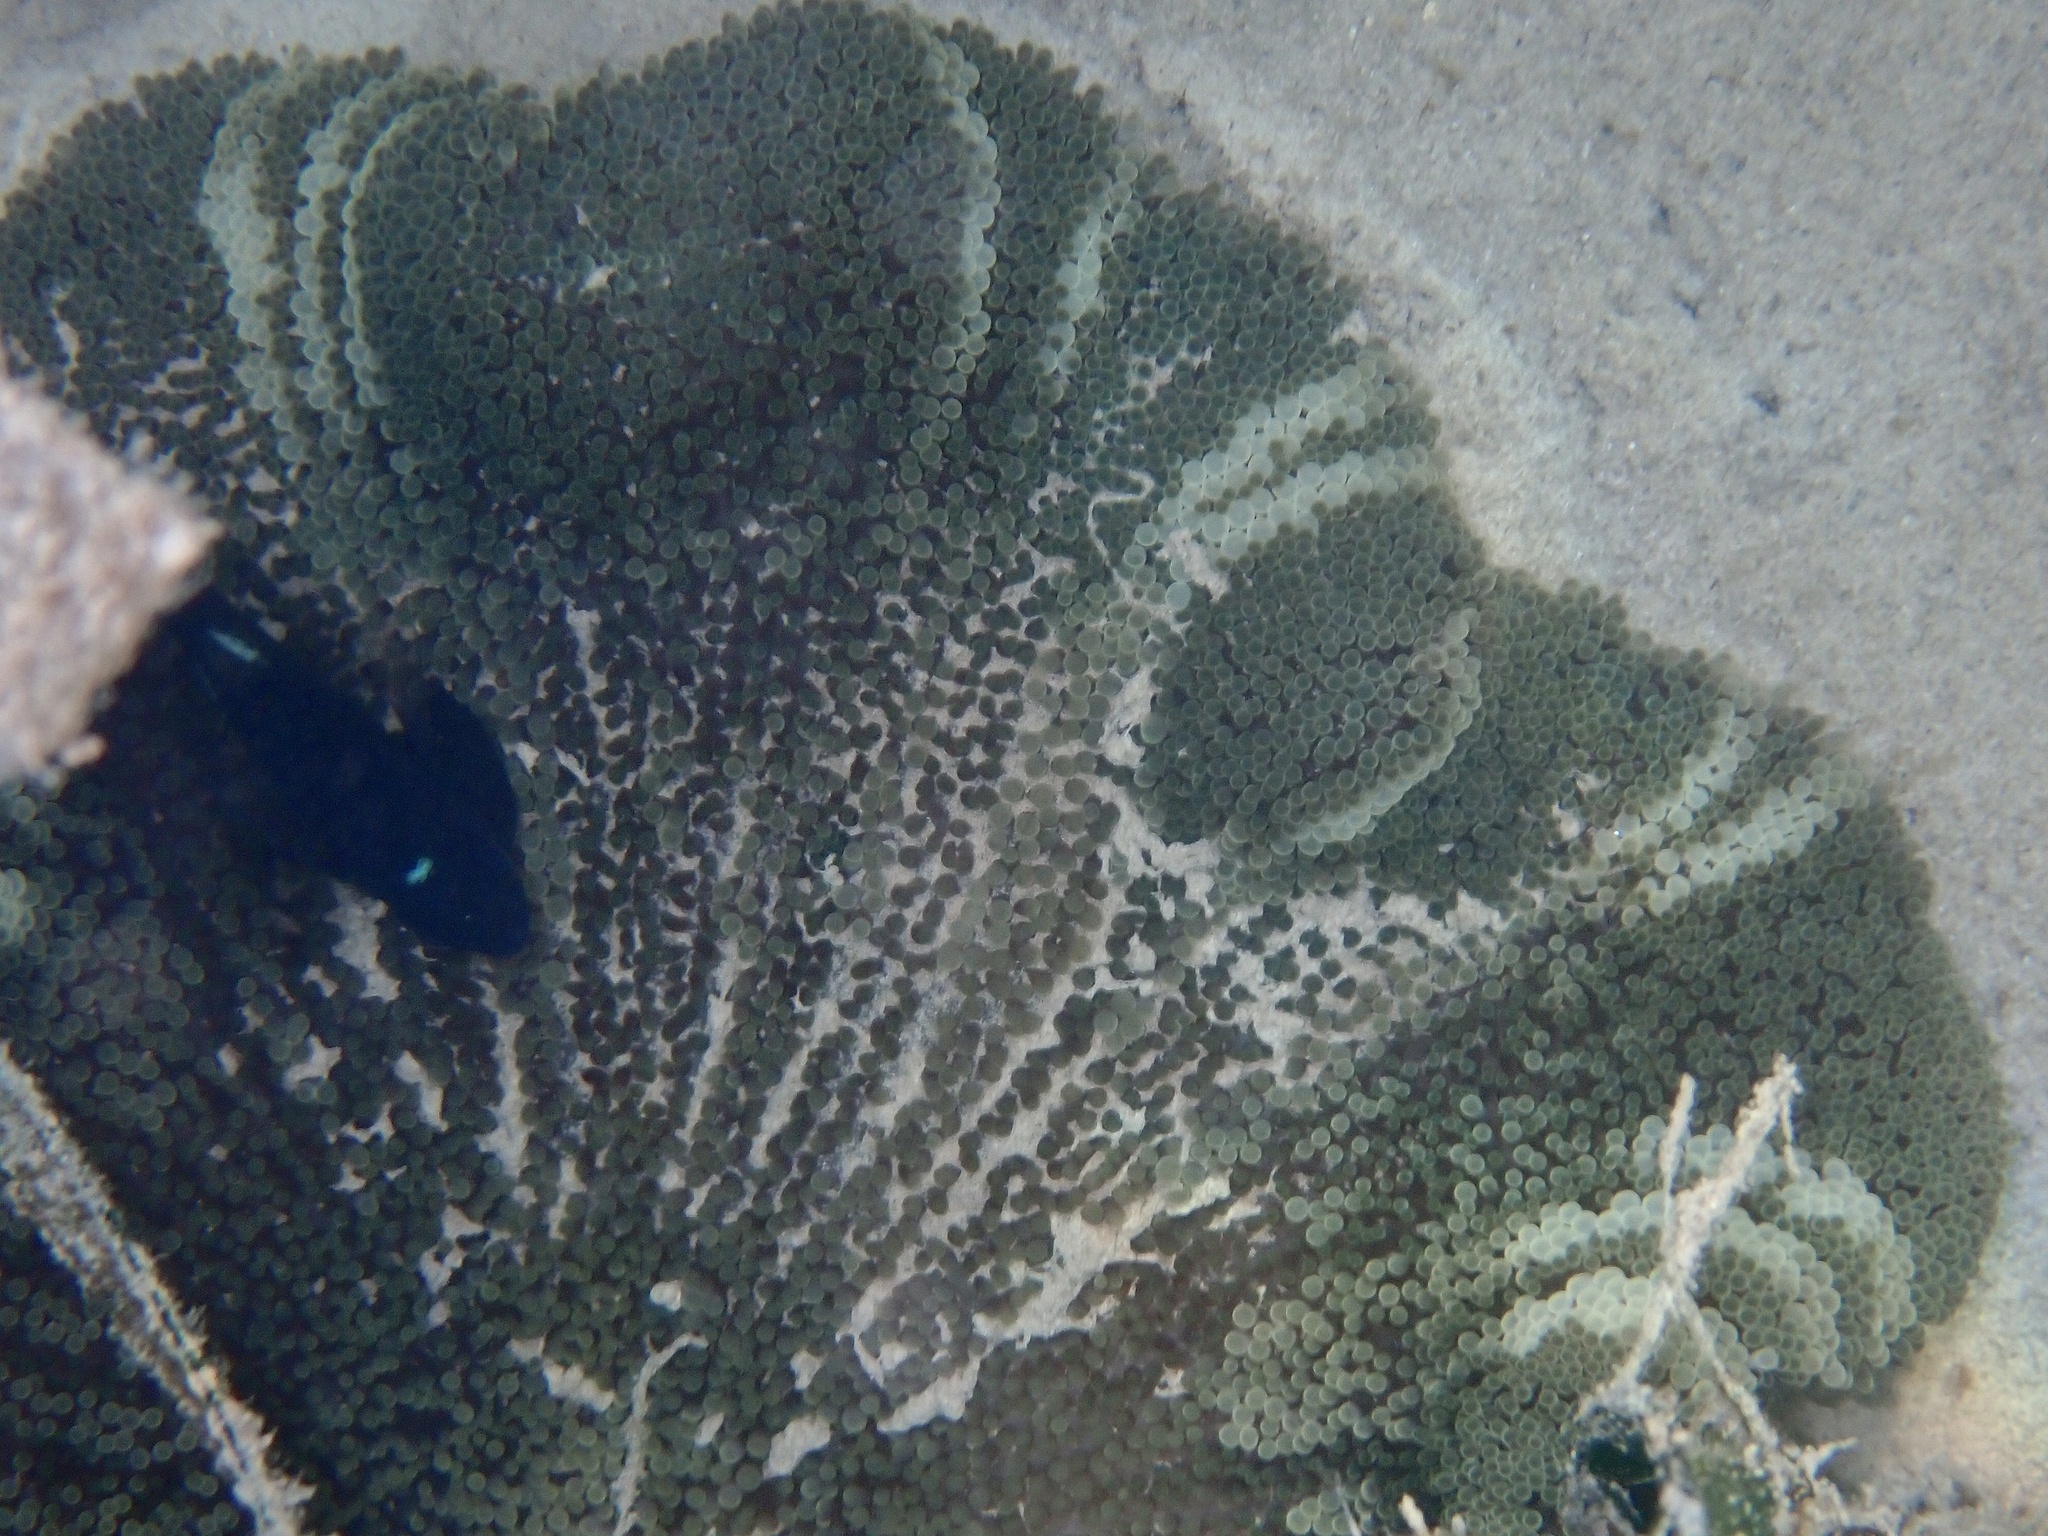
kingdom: Animalia
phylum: Cnidaria
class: Anthozoa
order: Actiniaria
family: Stichodactylidae
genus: Stichodactyla
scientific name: Stichodactyla haddoni
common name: Haddon's sea anemone
